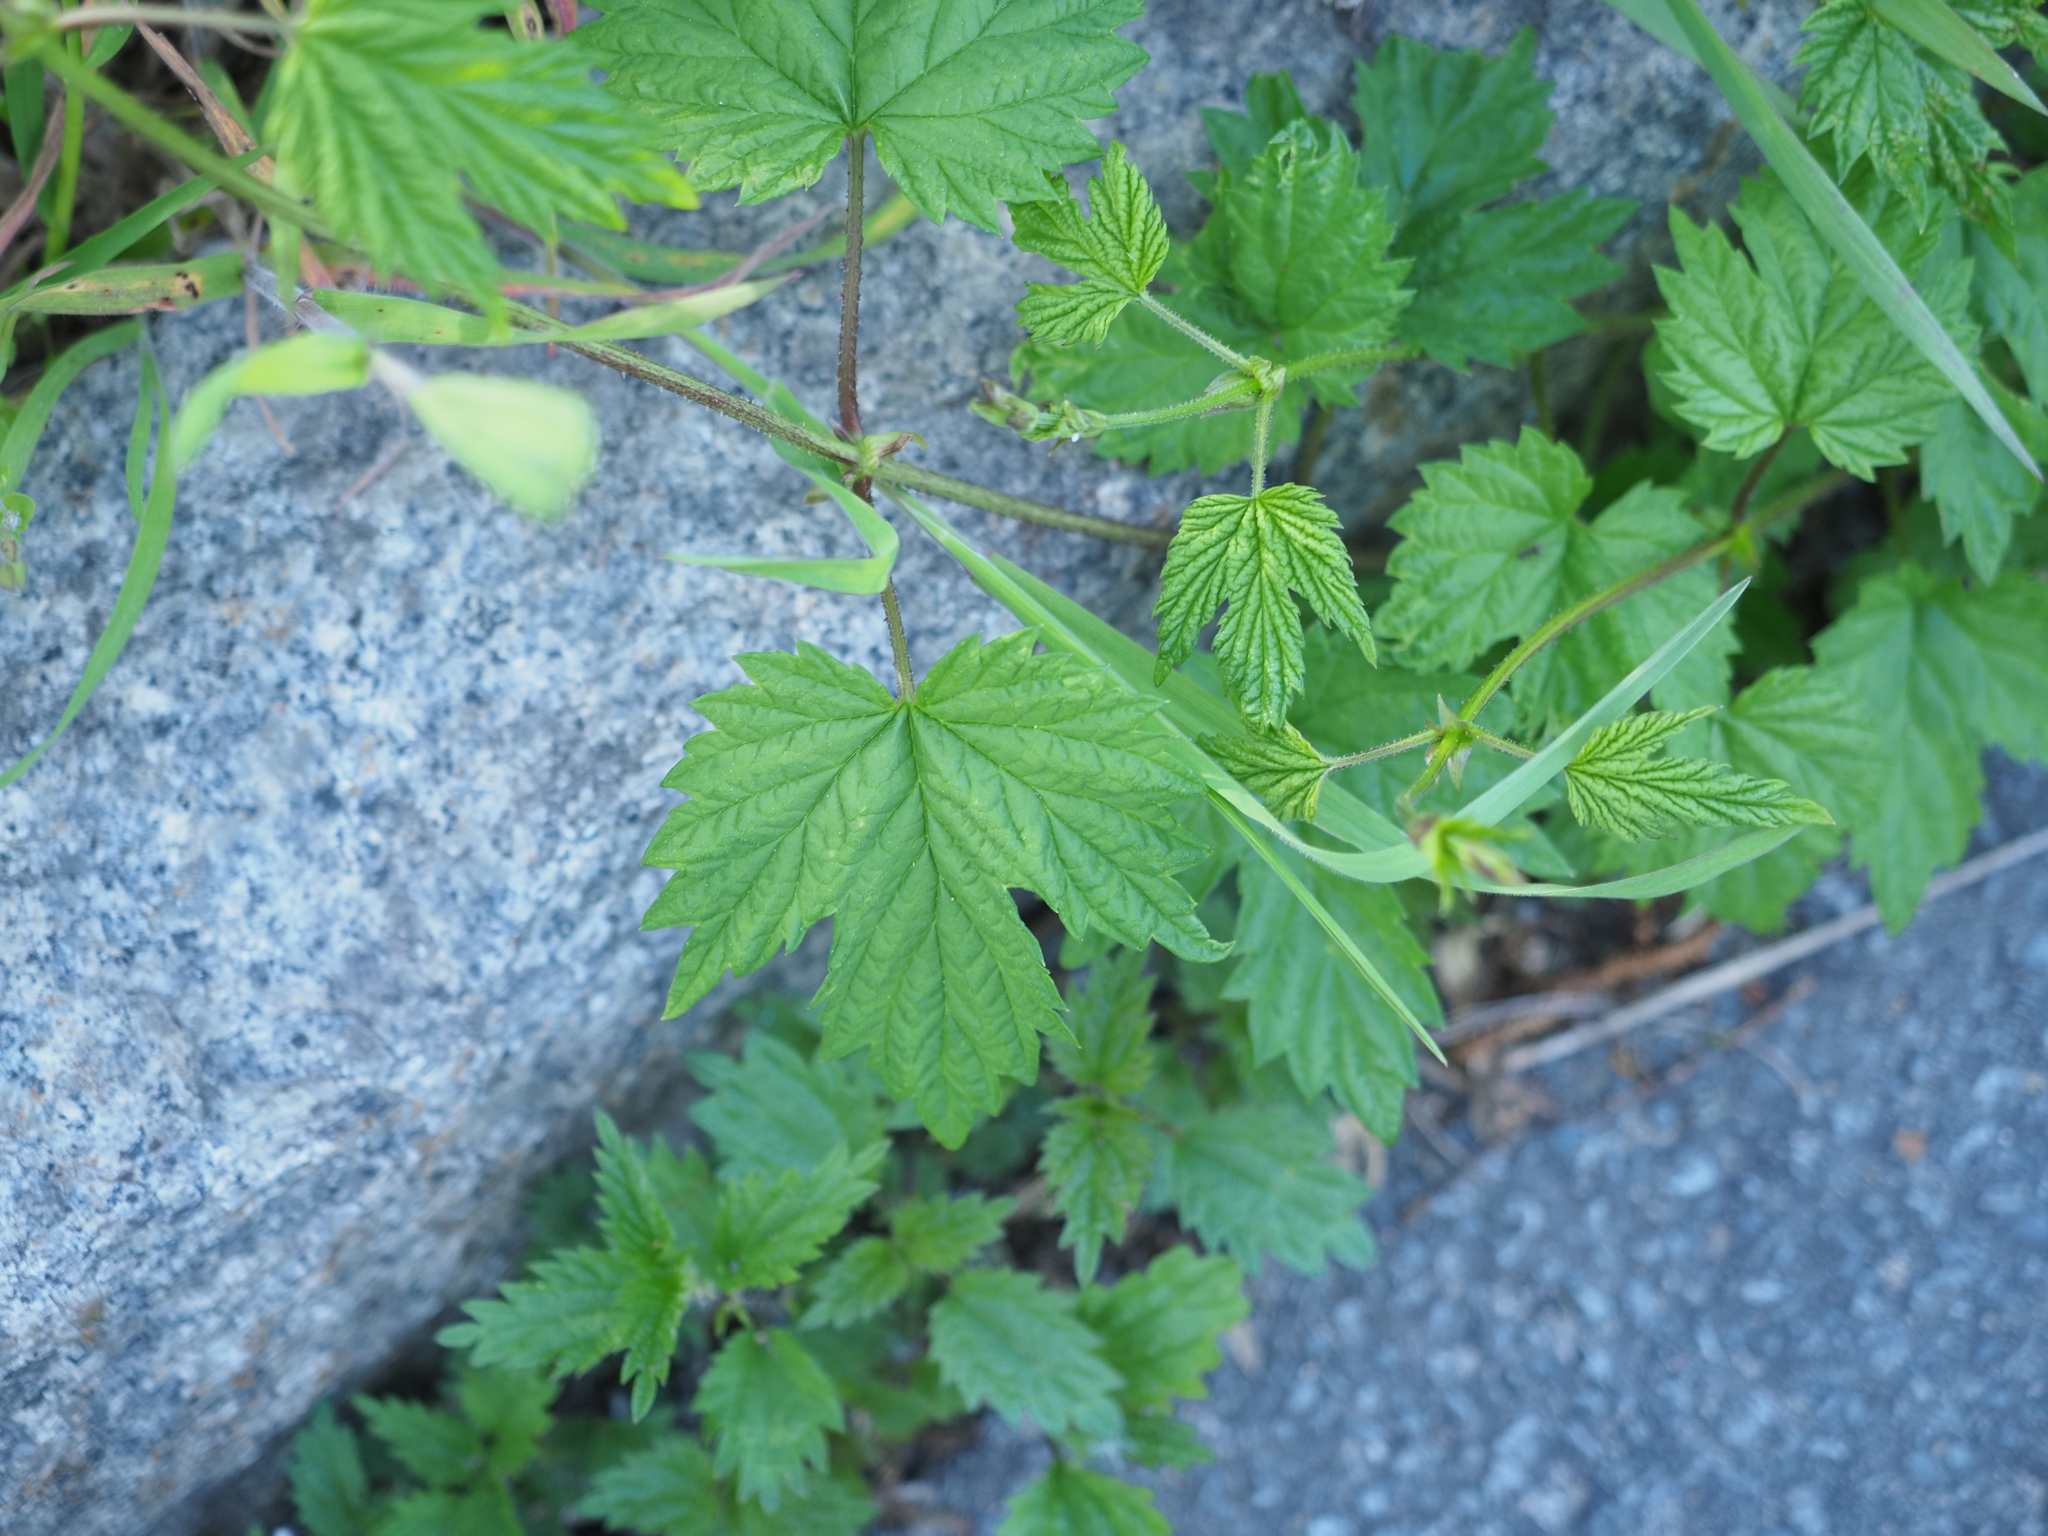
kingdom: Plantae
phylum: Tracheophyta
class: Magnoliopsida
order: Rosales
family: Cannabaceae
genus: Humulus
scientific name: Humulus lupulus
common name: Hop
